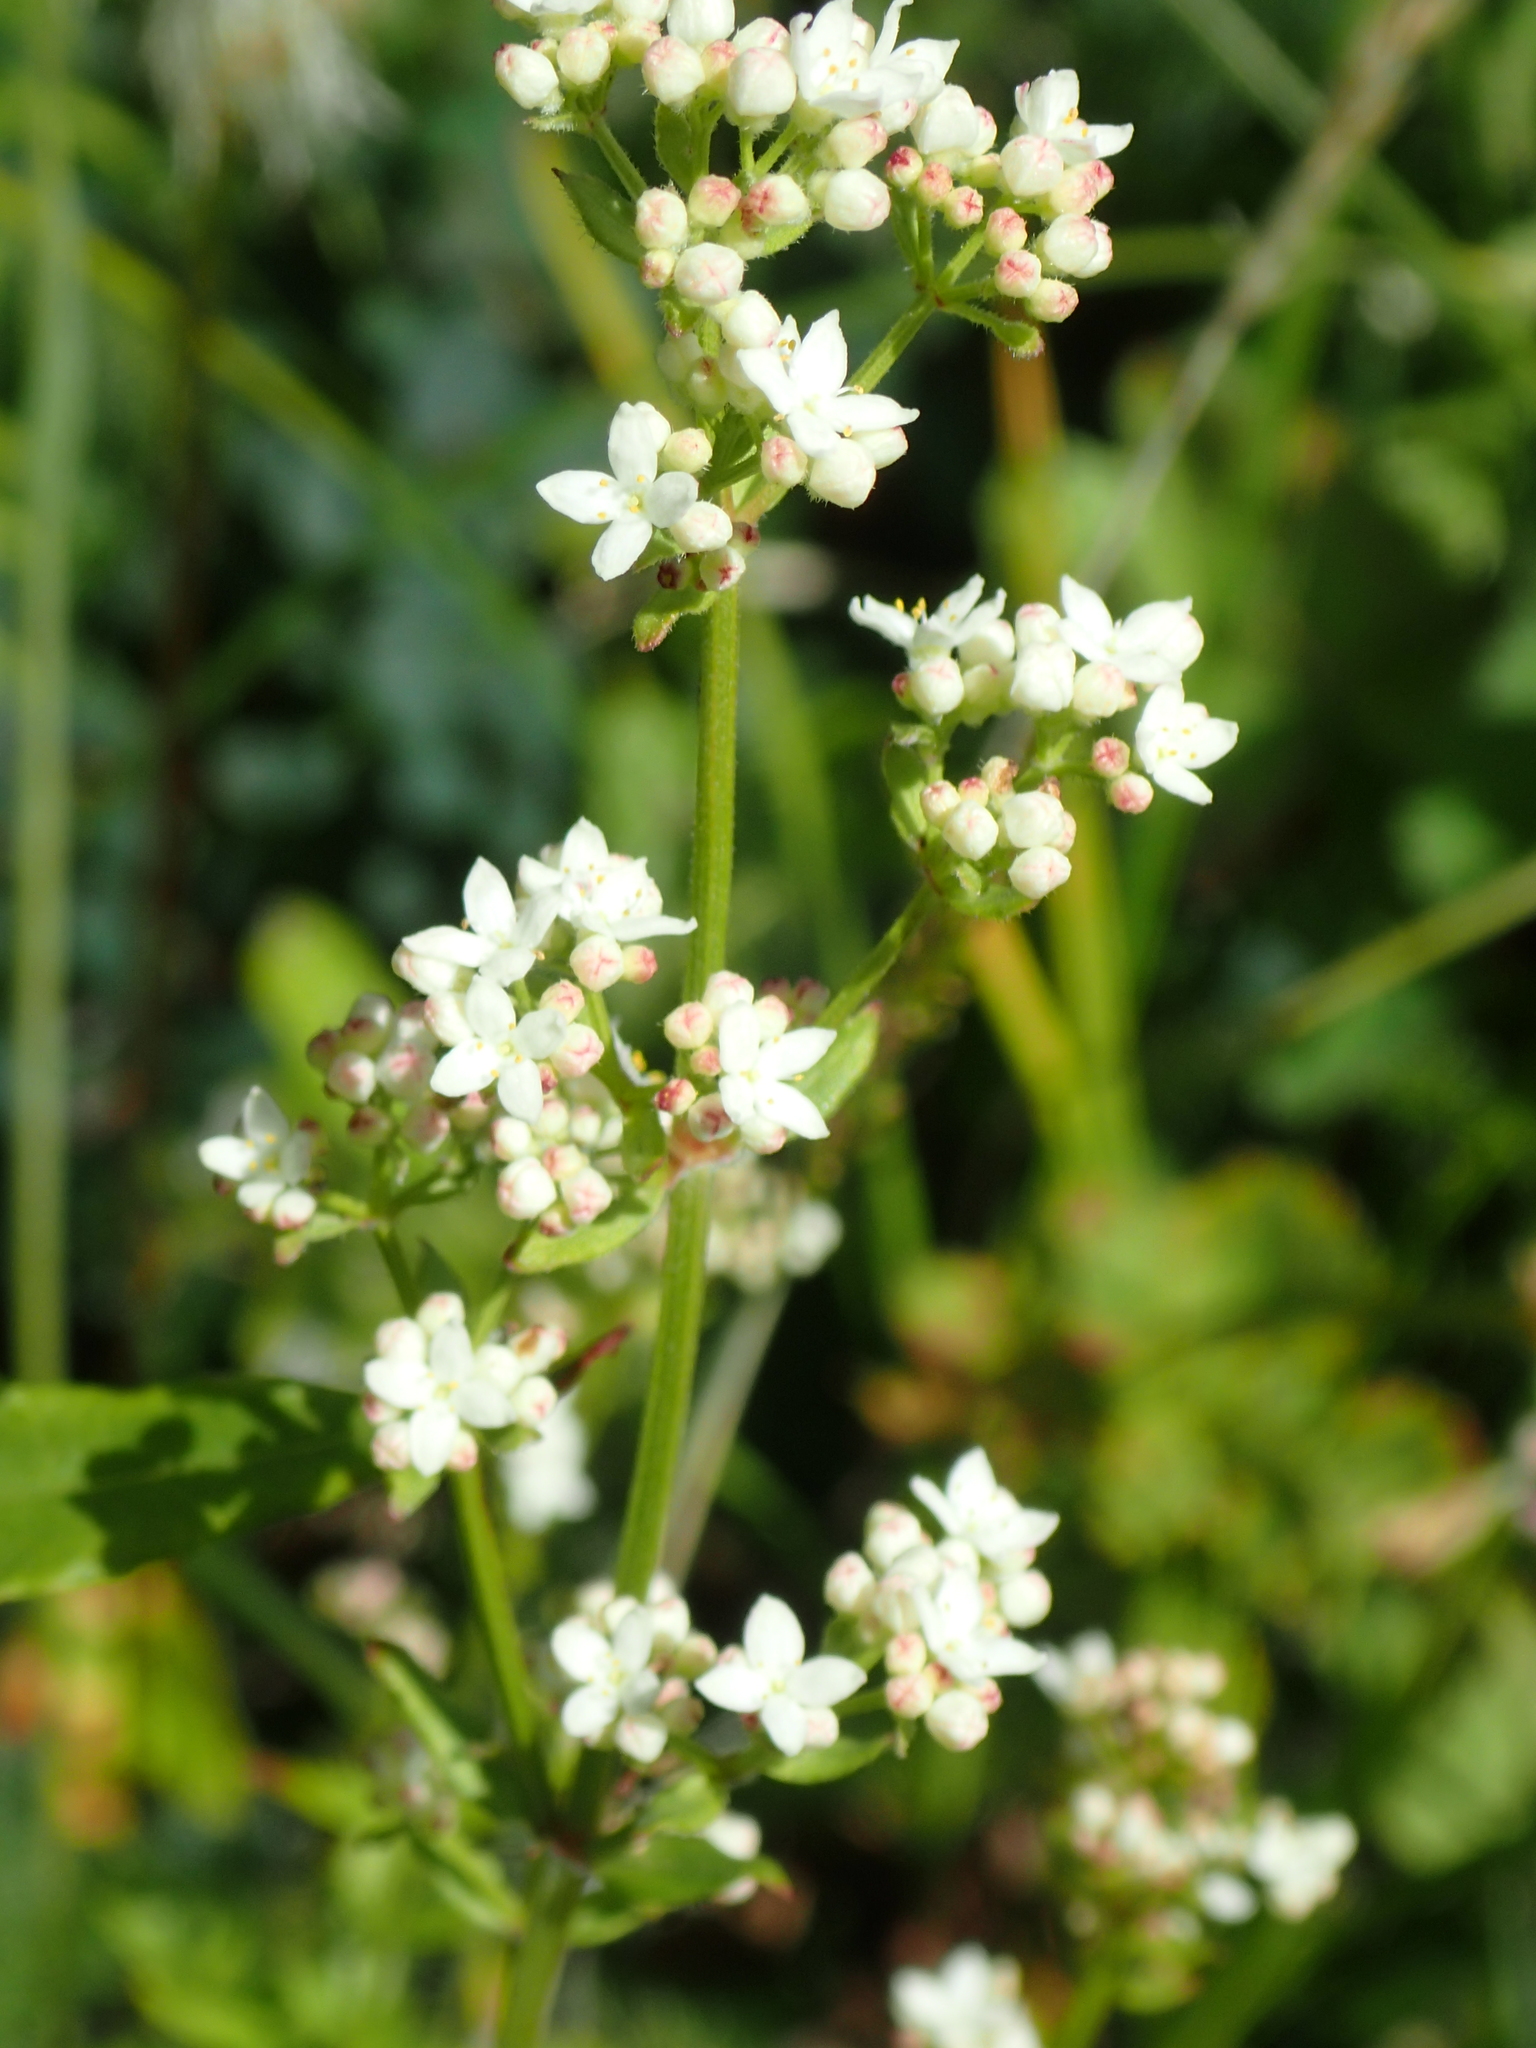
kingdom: Plantae
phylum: Tracheophyta
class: Magnoliopsida
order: Gentianales
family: Rubiaceae
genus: Galium
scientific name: Galium boreale
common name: Northern bedstraw
